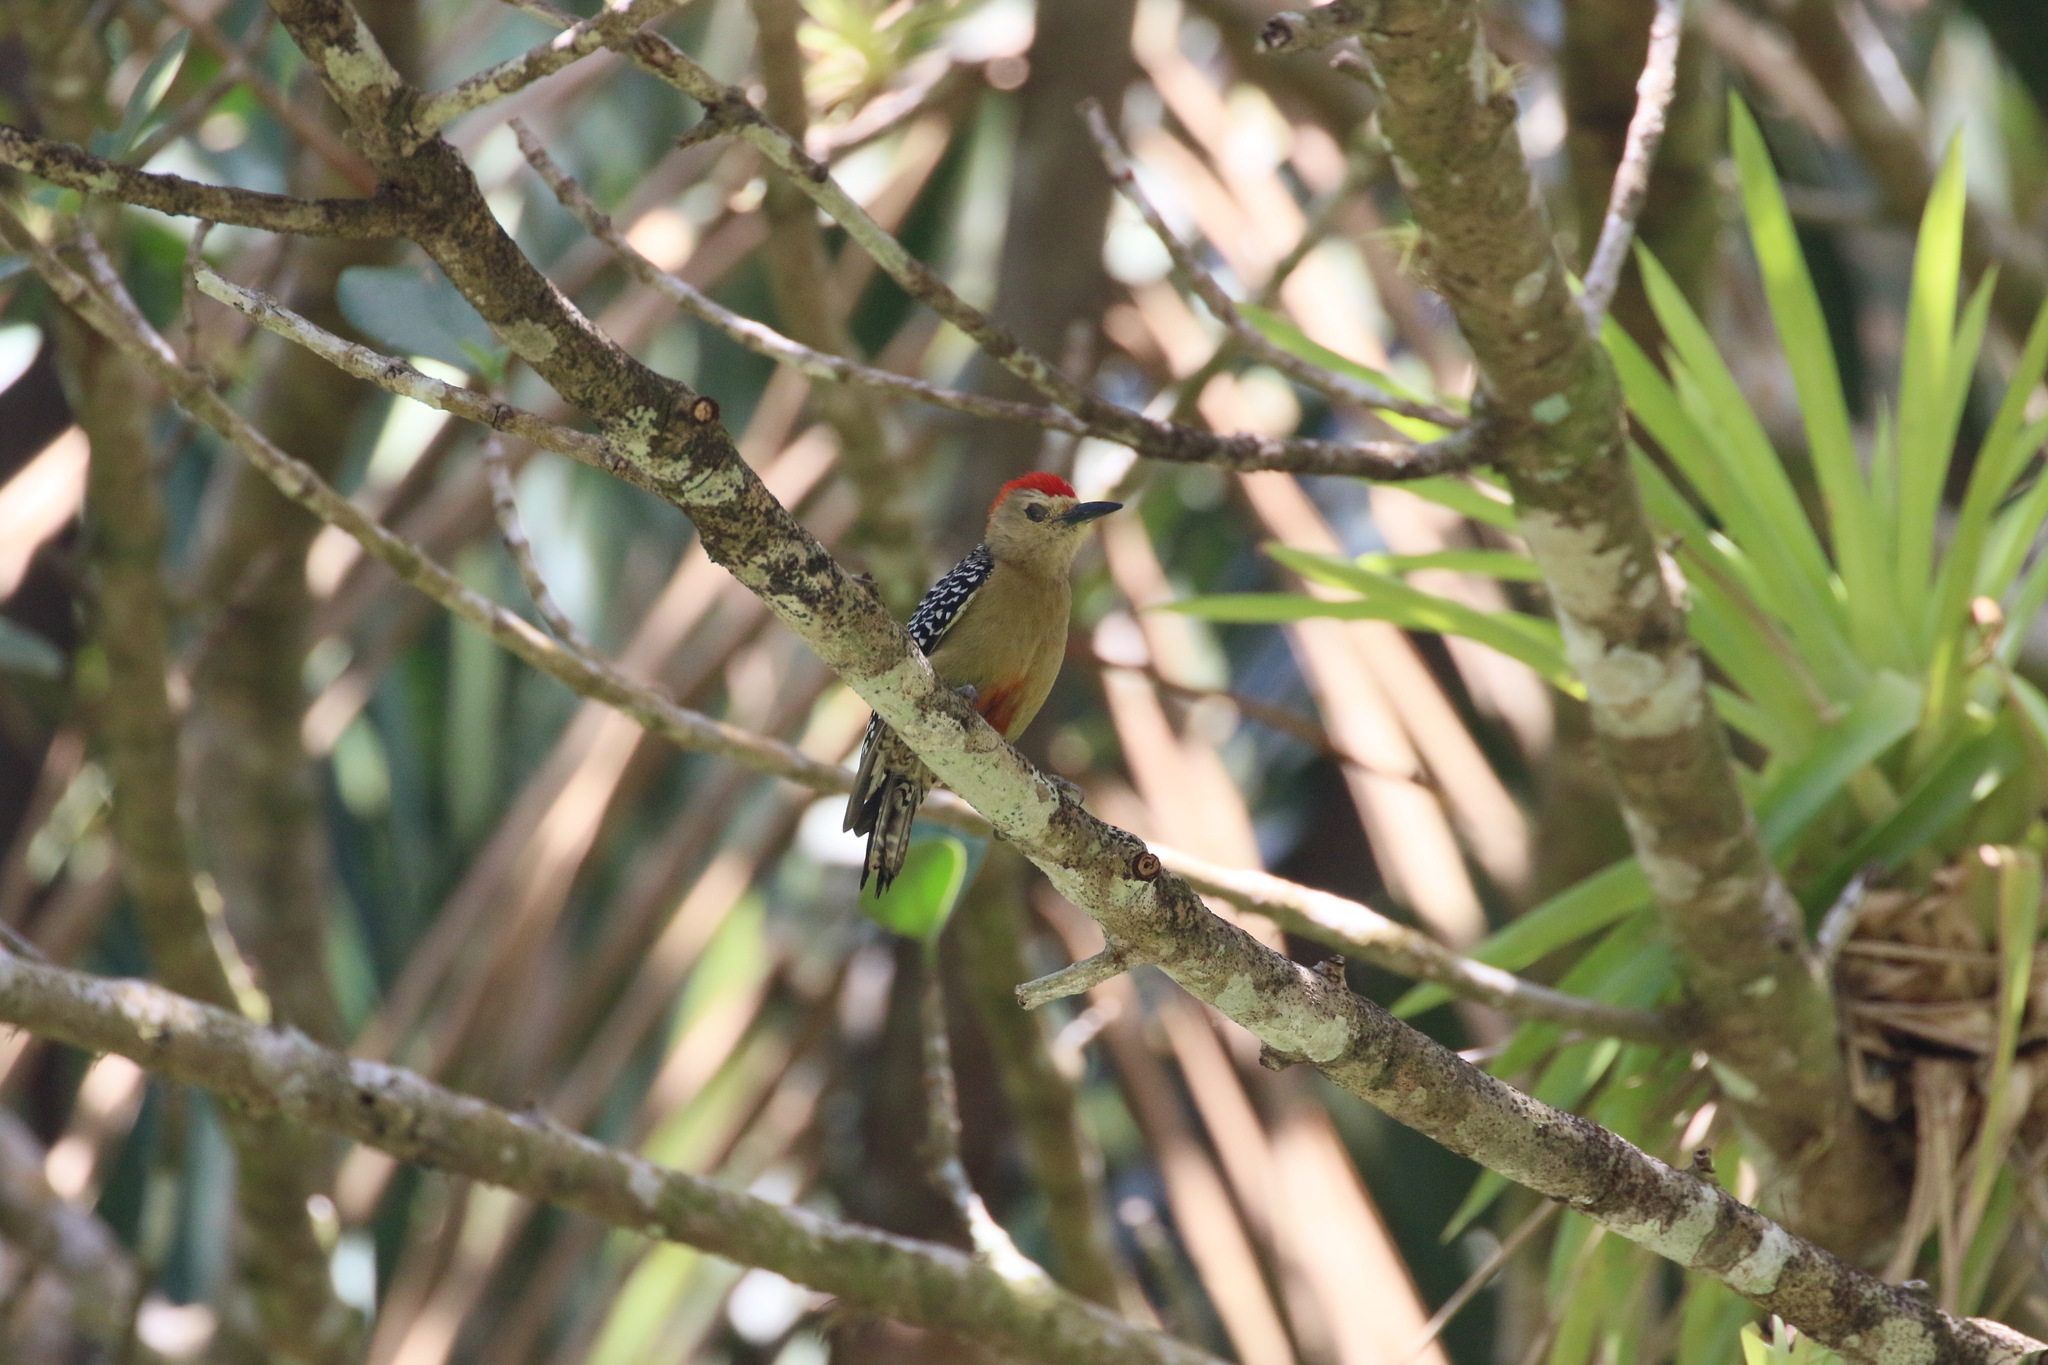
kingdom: Animalia
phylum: Chordata
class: Aves
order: Piciformes
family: Picidae
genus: Melanerpes
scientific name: Melanerpes rubricapillus
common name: Red-crowned woodpecker
